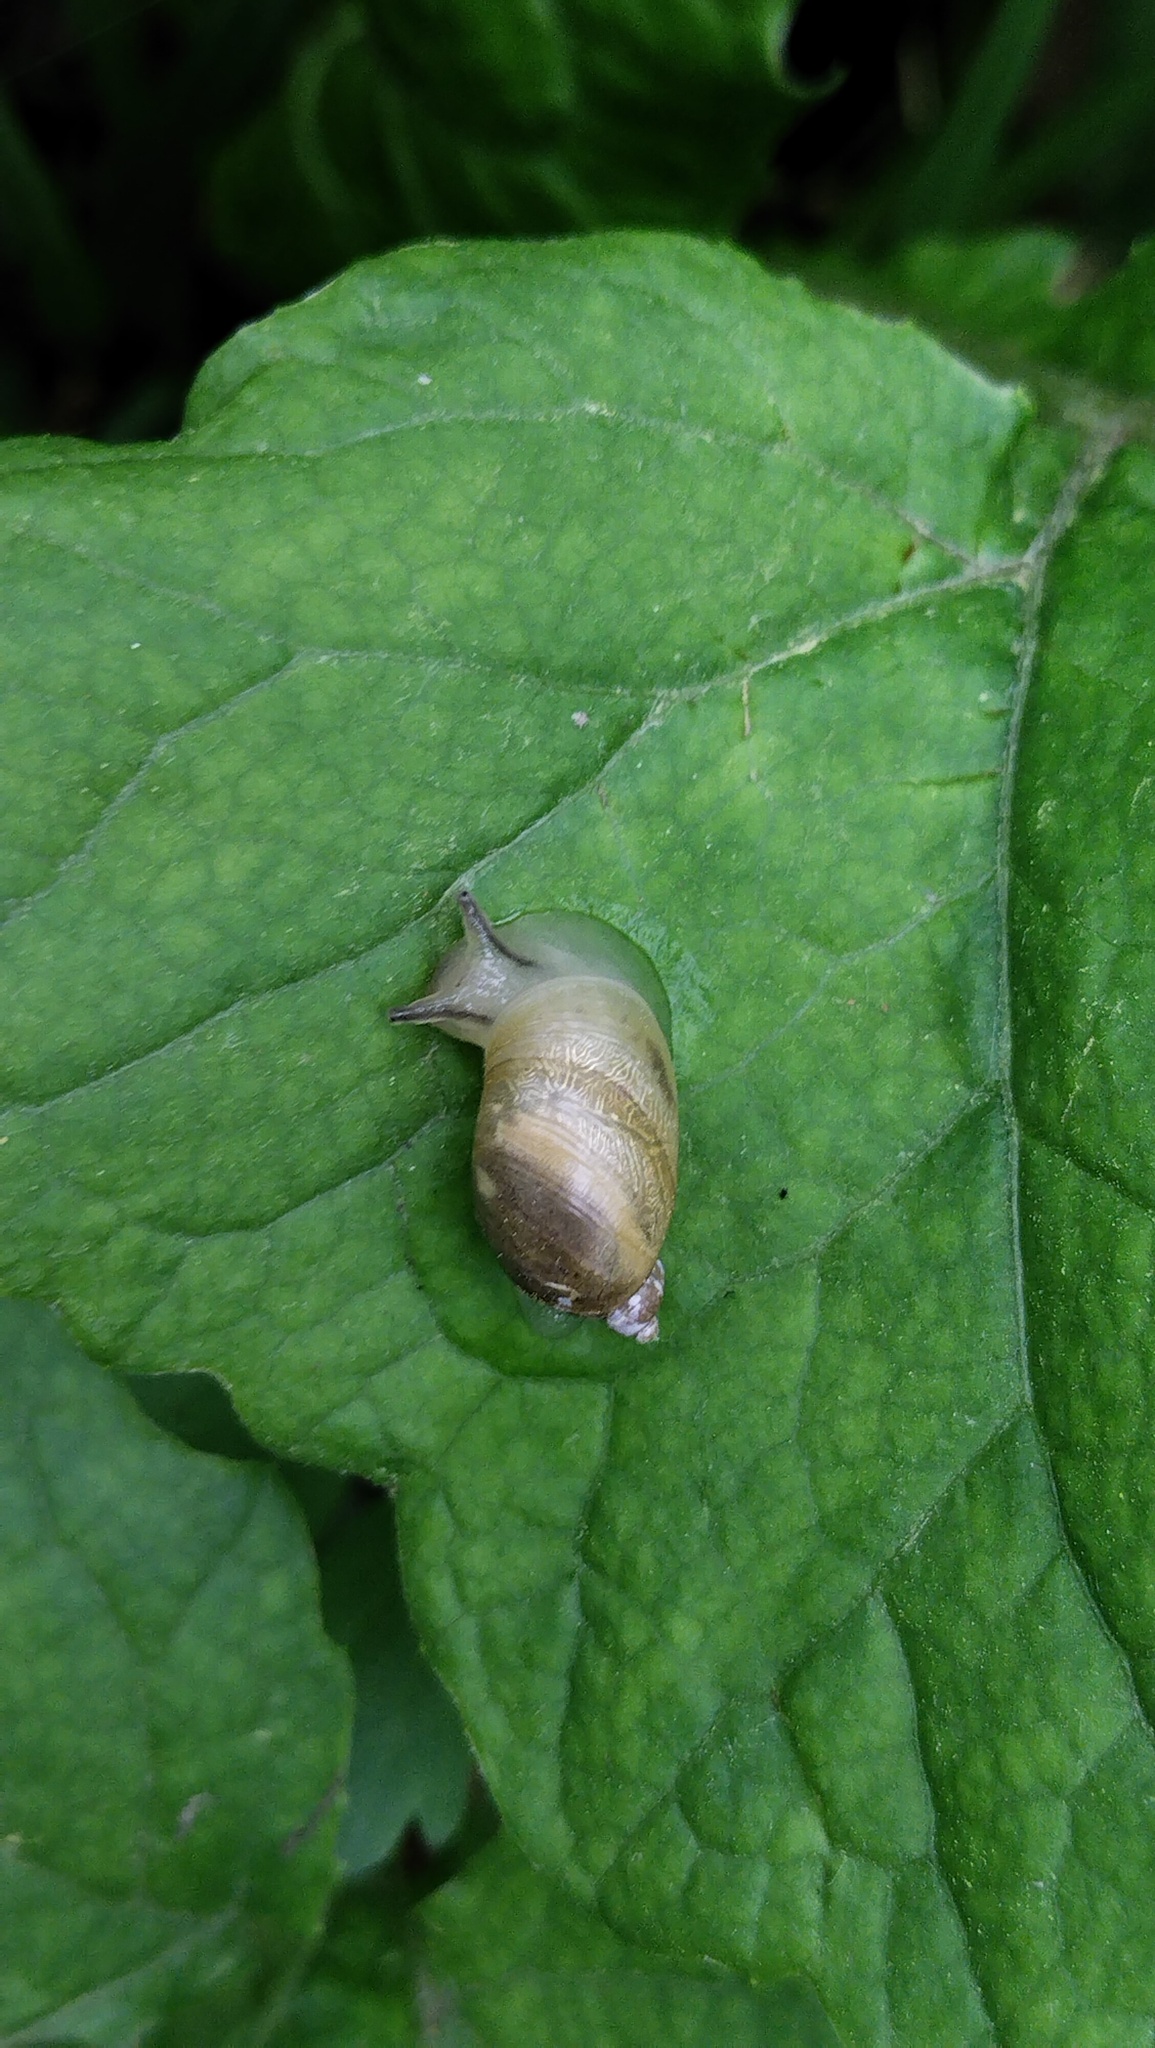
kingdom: Animalia
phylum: Mollusca
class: Gastropoda
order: Stylommatophora
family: Succineidae
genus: Succinea
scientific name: Succinea lauta
